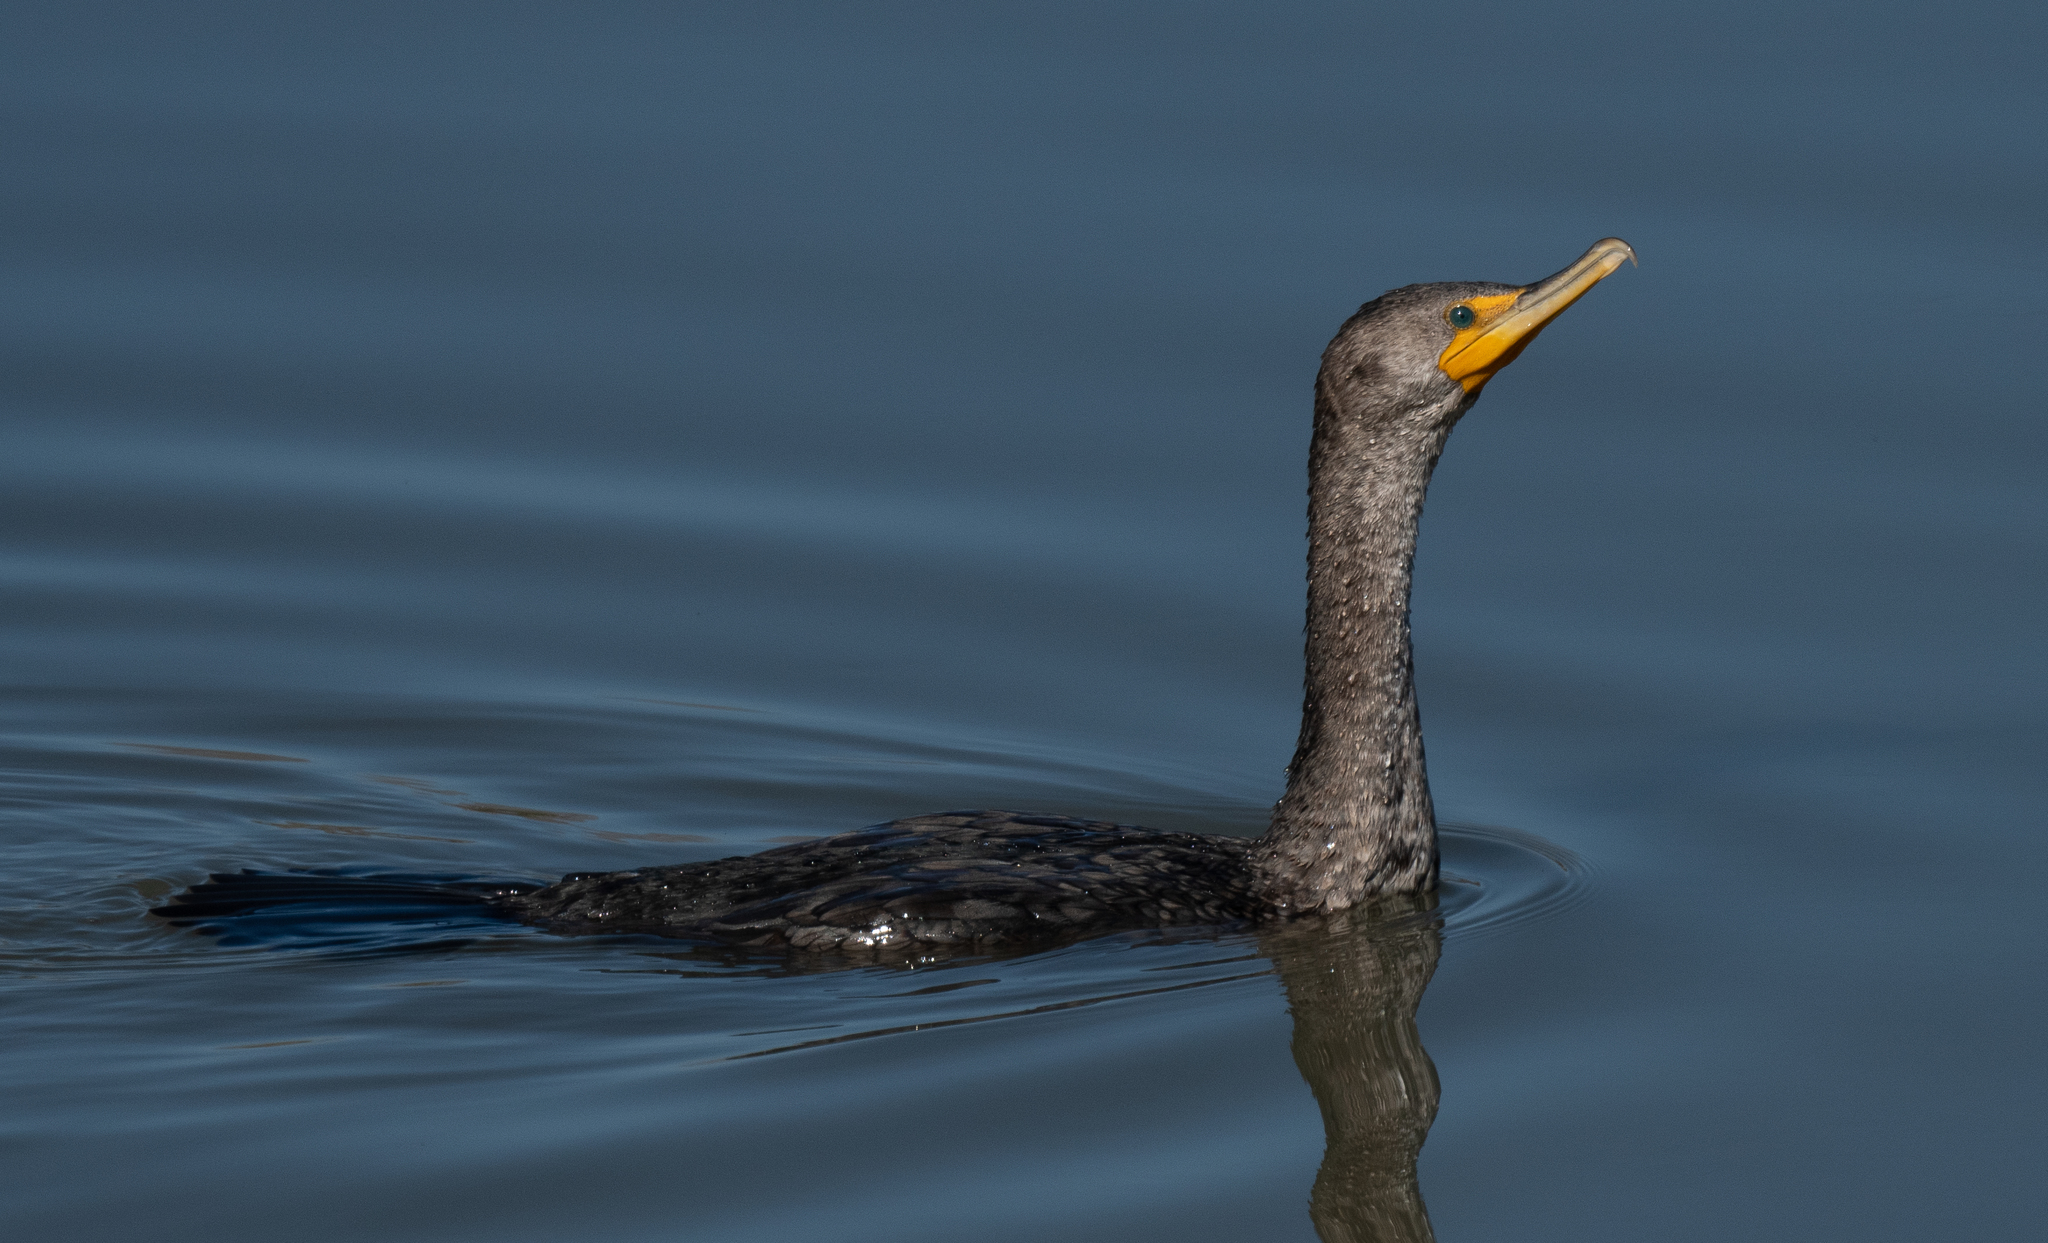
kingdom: Animalia
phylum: Chordata
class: Aves
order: Suliformes
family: Phalacrocoracidae
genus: Phalacrocorax
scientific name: Phalacrocorax auritus
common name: Double-crested cormorant
